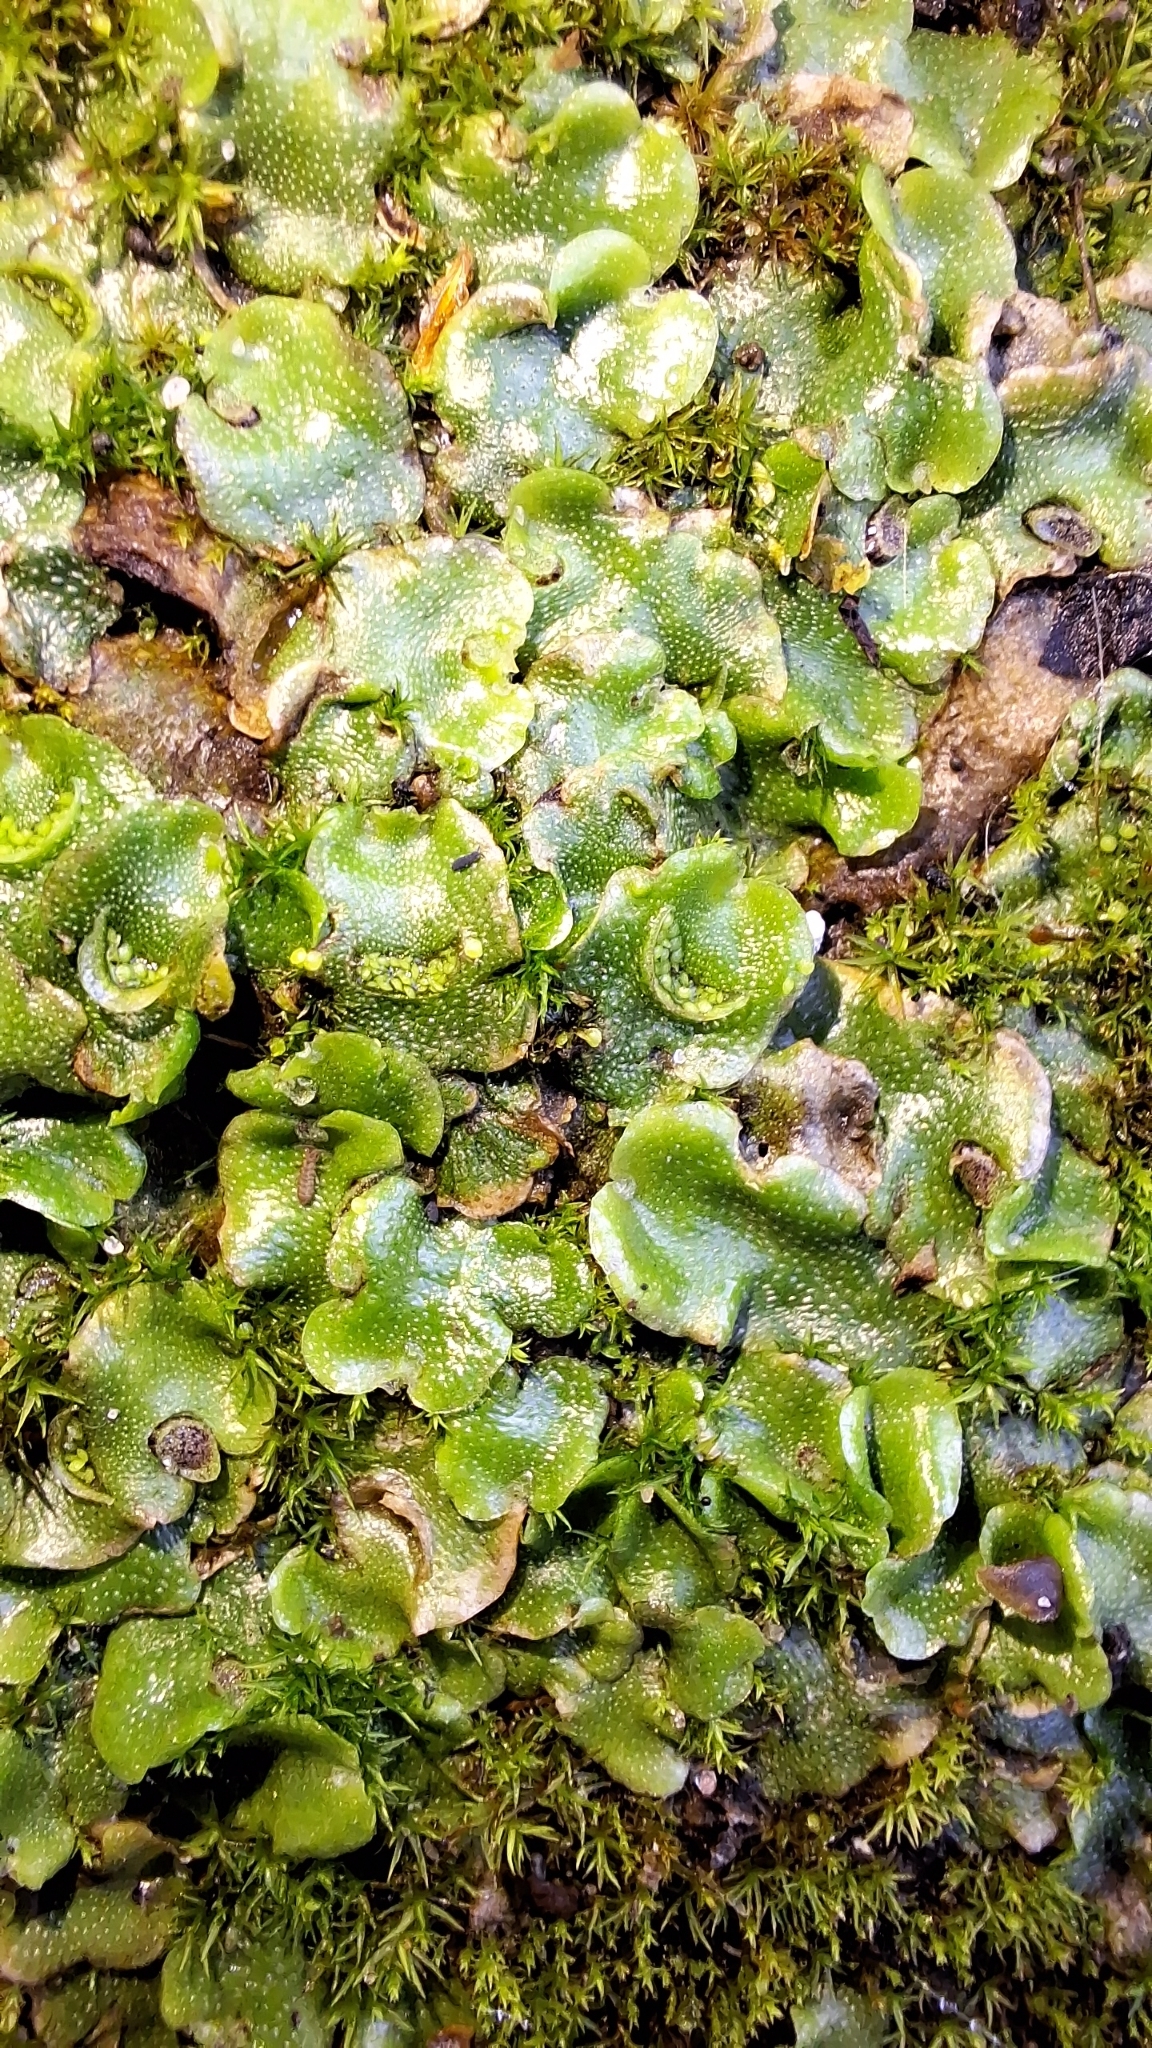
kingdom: Plantae
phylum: Marchantiophyta
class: Marchantiopsida
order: Lunulariales
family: Lunulariaceae
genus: Lunularia
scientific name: Lunularia cruciata
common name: Crescent-cup liverwort
